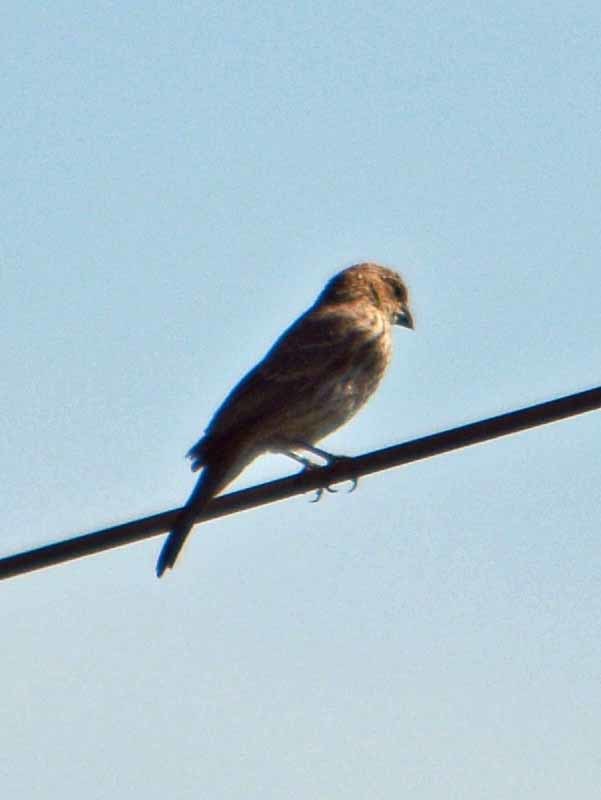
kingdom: Animalia
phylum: Chordata
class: Aves
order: Passeriformes
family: Fringillidae
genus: Haemorhous
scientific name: Haemorhous mexicanus
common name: House finch
